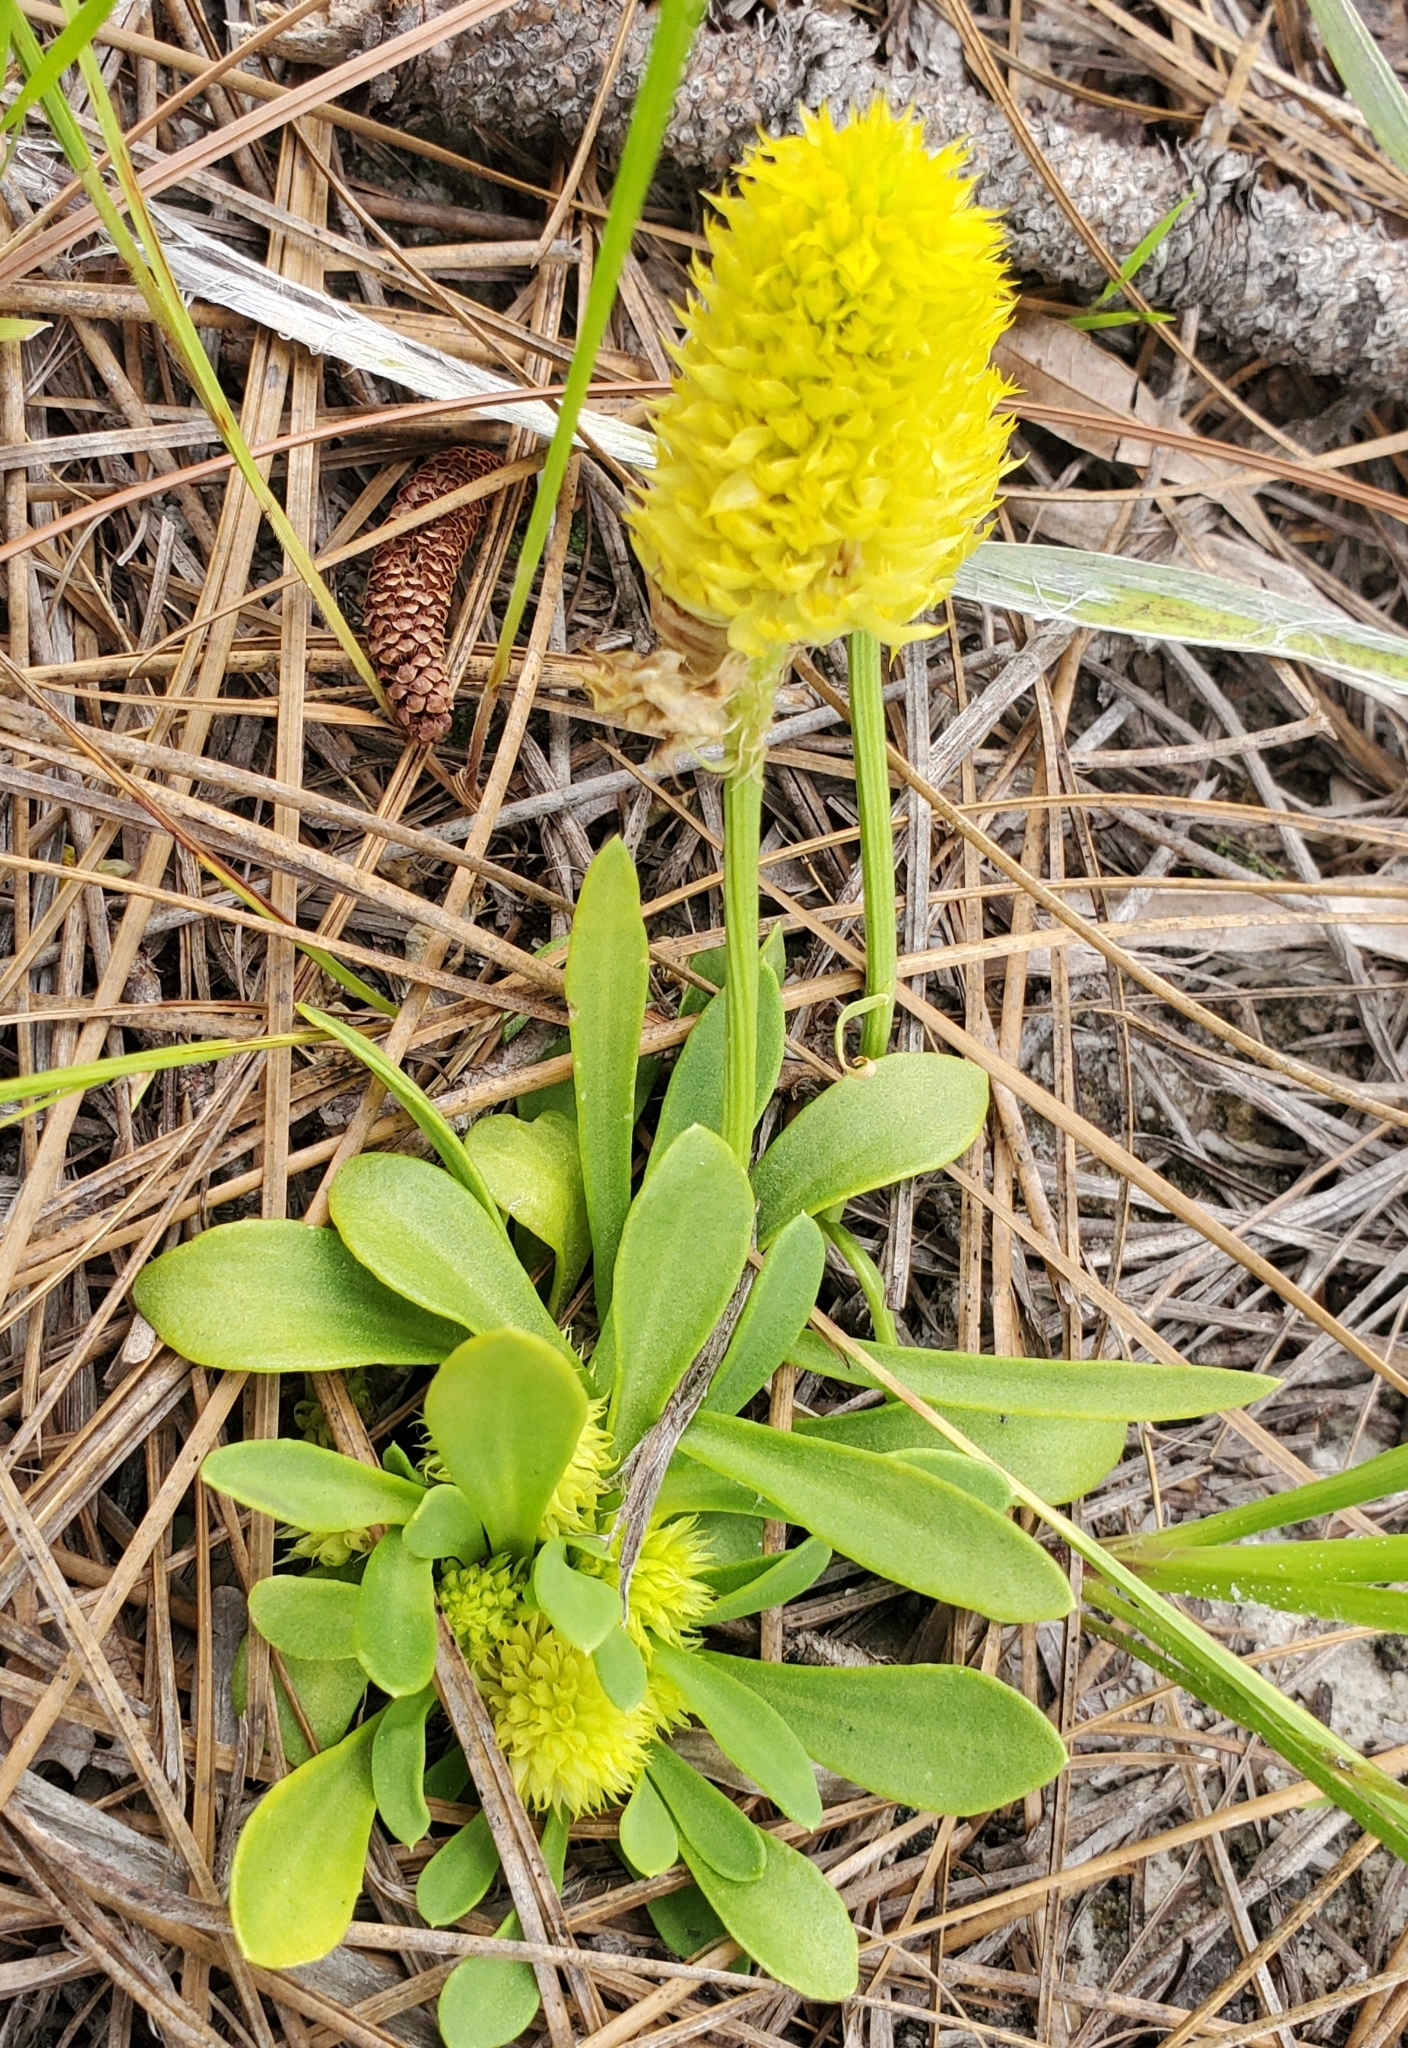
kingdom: Plantae
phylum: Tracheophyta
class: Magnoliopsida
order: Fabales
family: Polygalaceae
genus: Polygala
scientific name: Polygala nana
